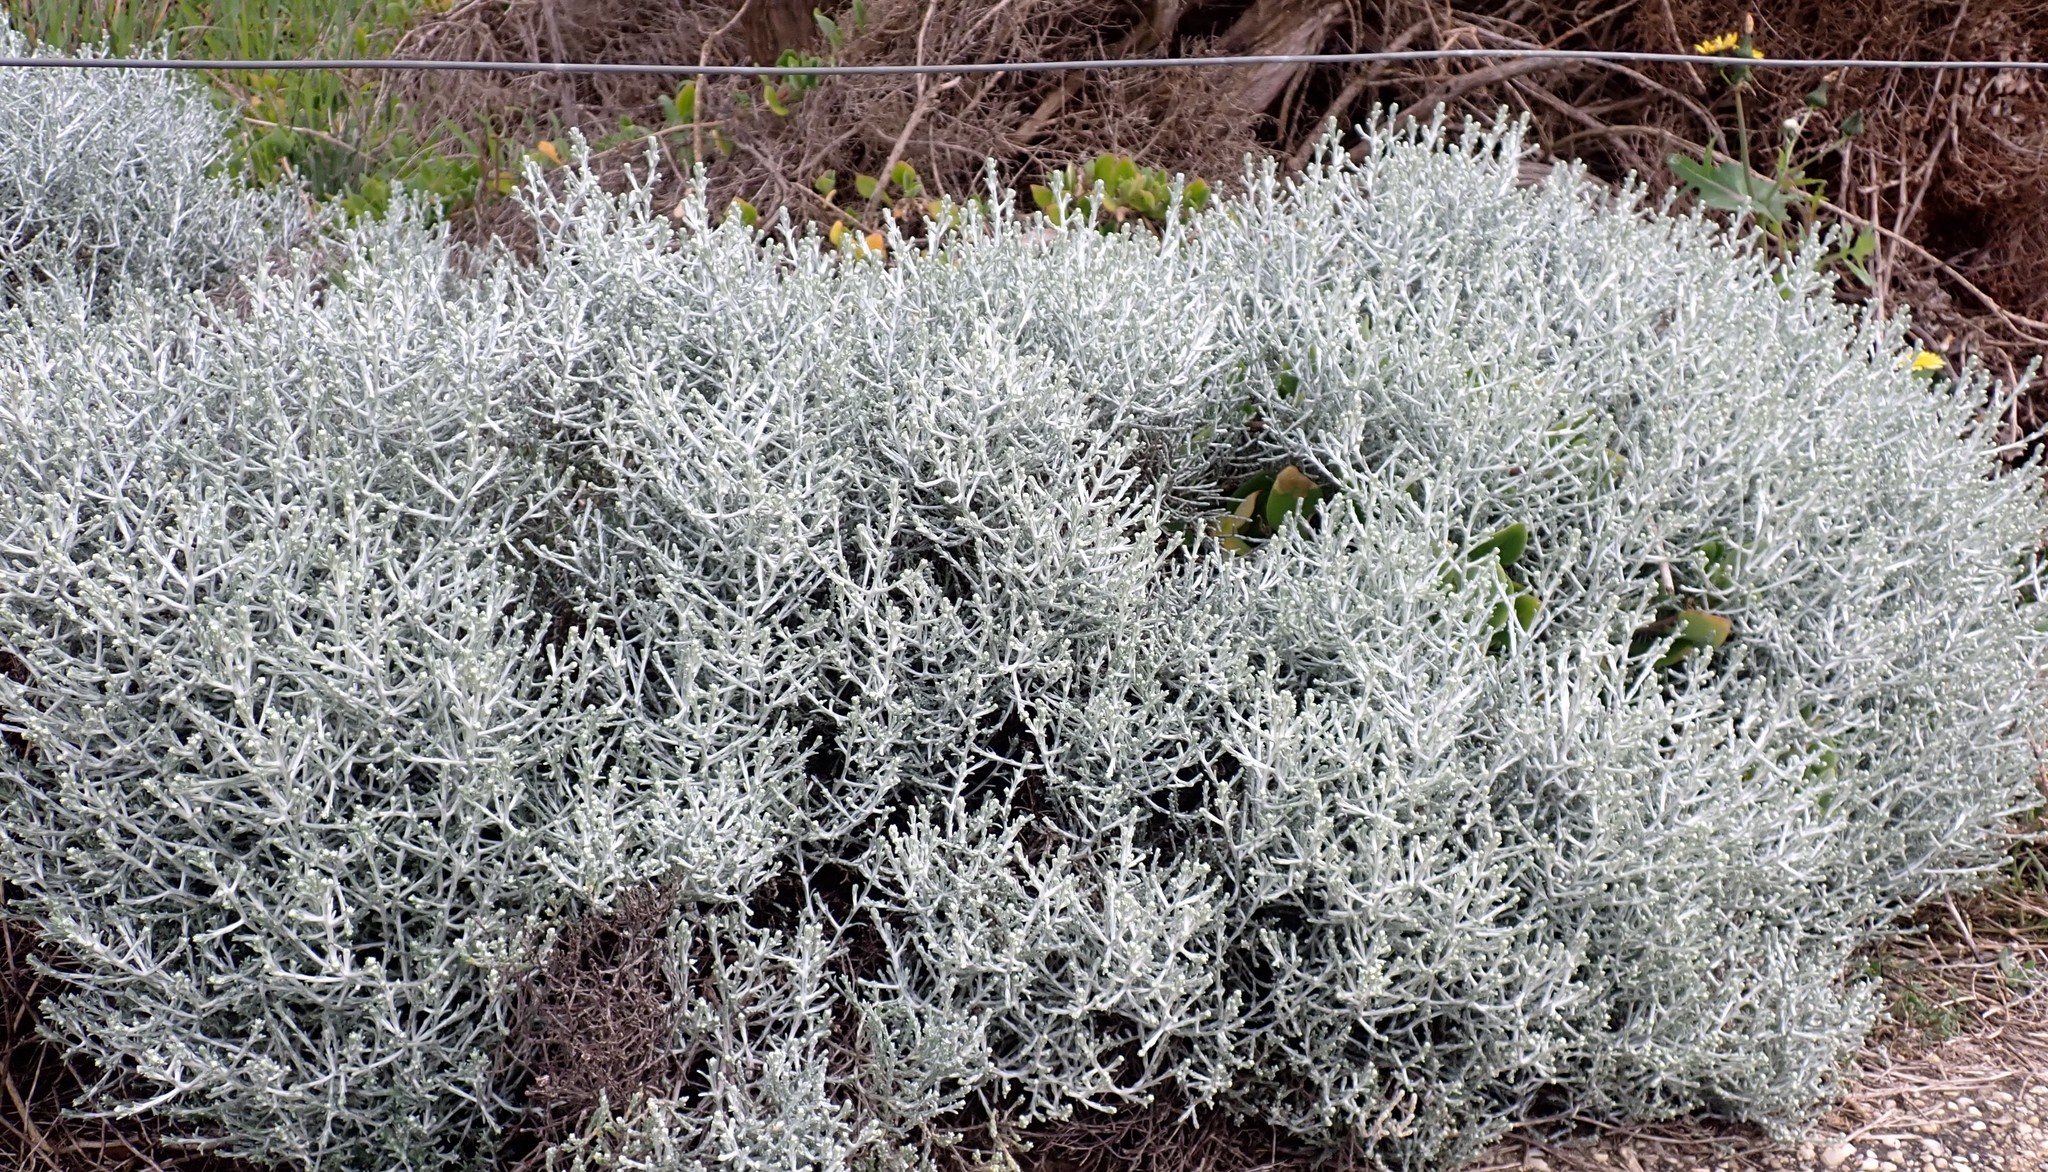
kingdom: Plantae
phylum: Tracheophyta
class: Magnoliopsida
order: Asterales
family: Asteraceae
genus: Calocephalus
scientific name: Calocephalus brownii
